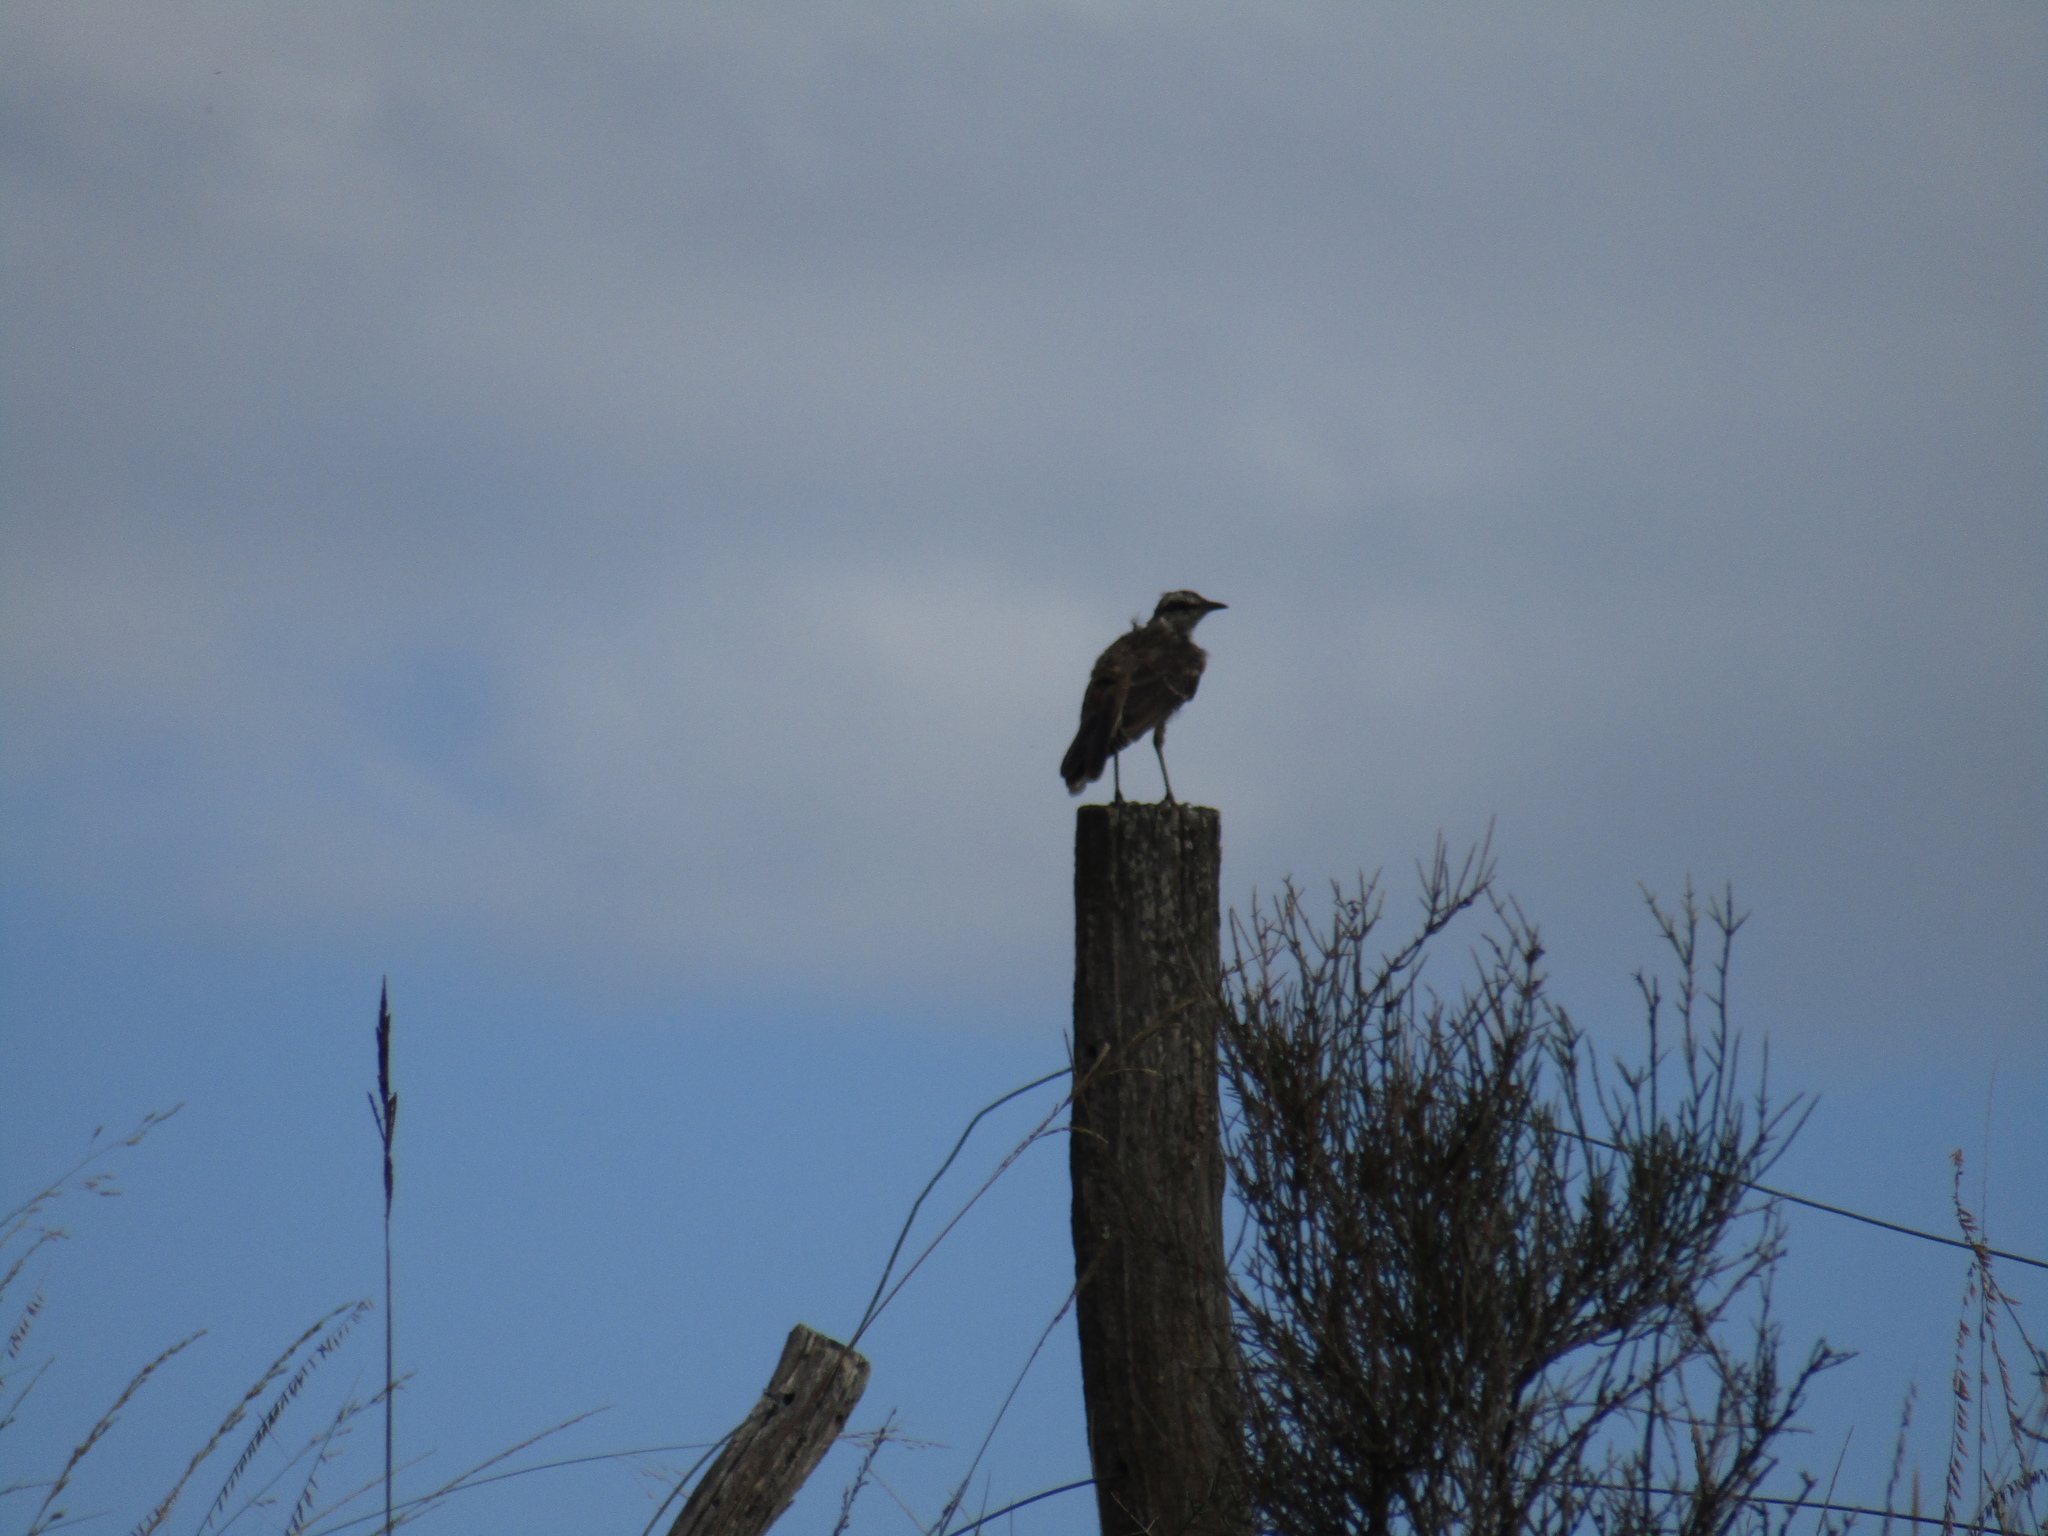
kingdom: Animalia
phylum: Chordata
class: Aves
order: Passeriformes
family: Mimidae
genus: Mimus
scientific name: Mimus saturninus
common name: Chalk-browed mockingbird
